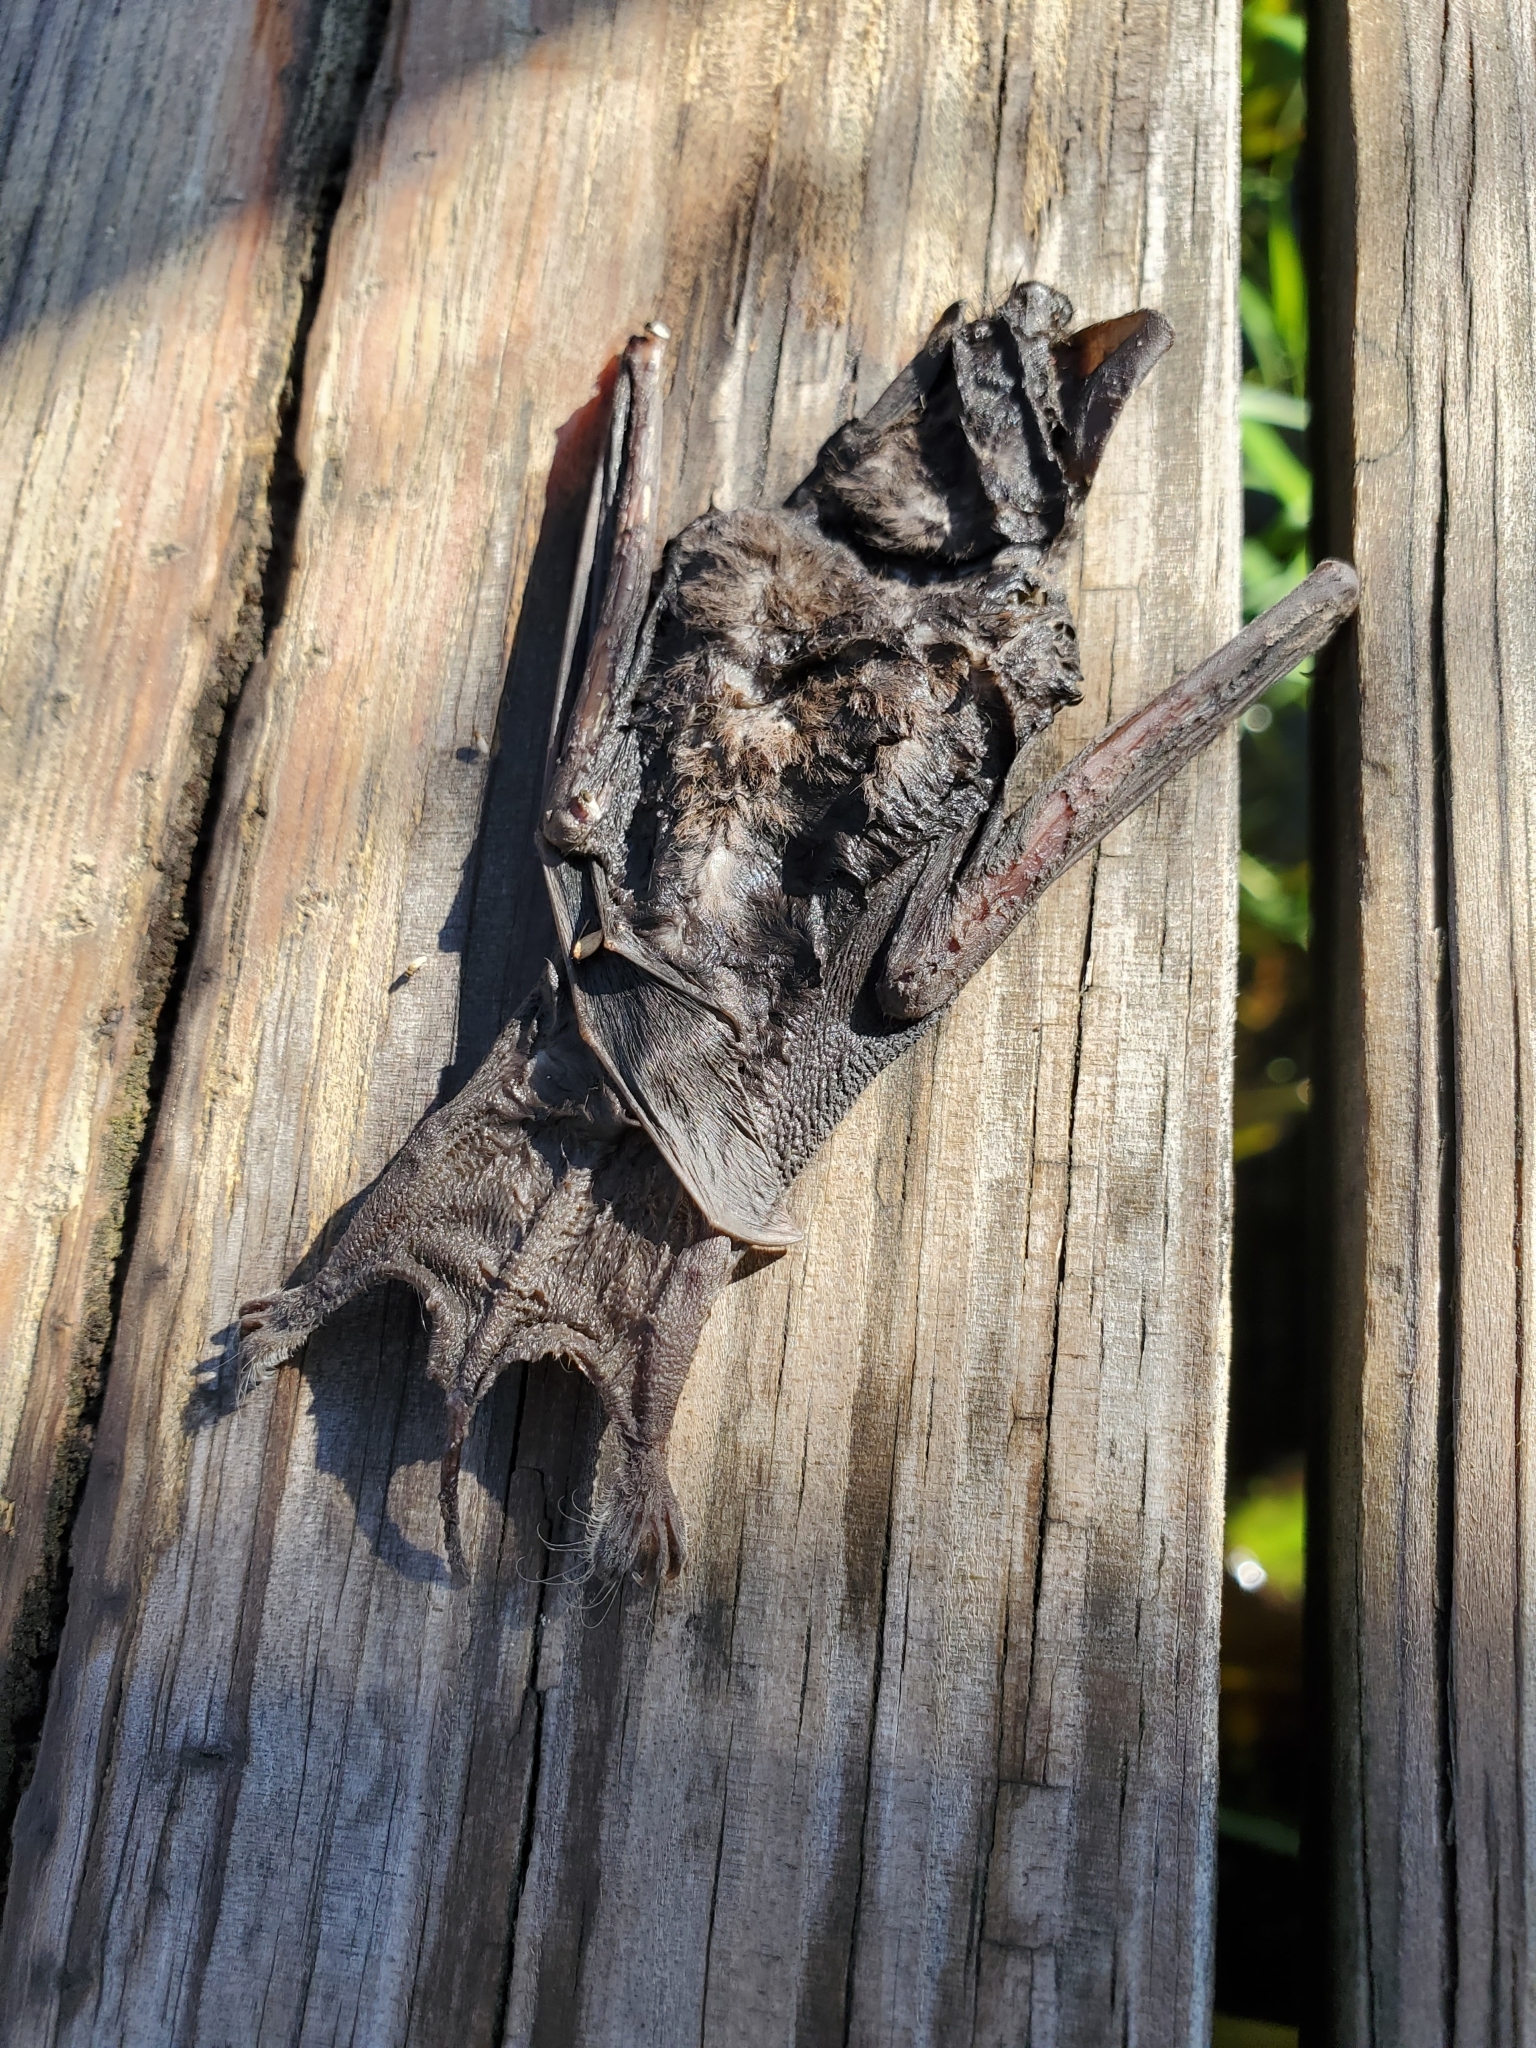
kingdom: Animalia
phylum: Chordata
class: Mammalia
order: Chiroptera
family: Molossidae
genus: Tadarida
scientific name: Tadarida brasiliensis
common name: Mexican free-tailed bat
